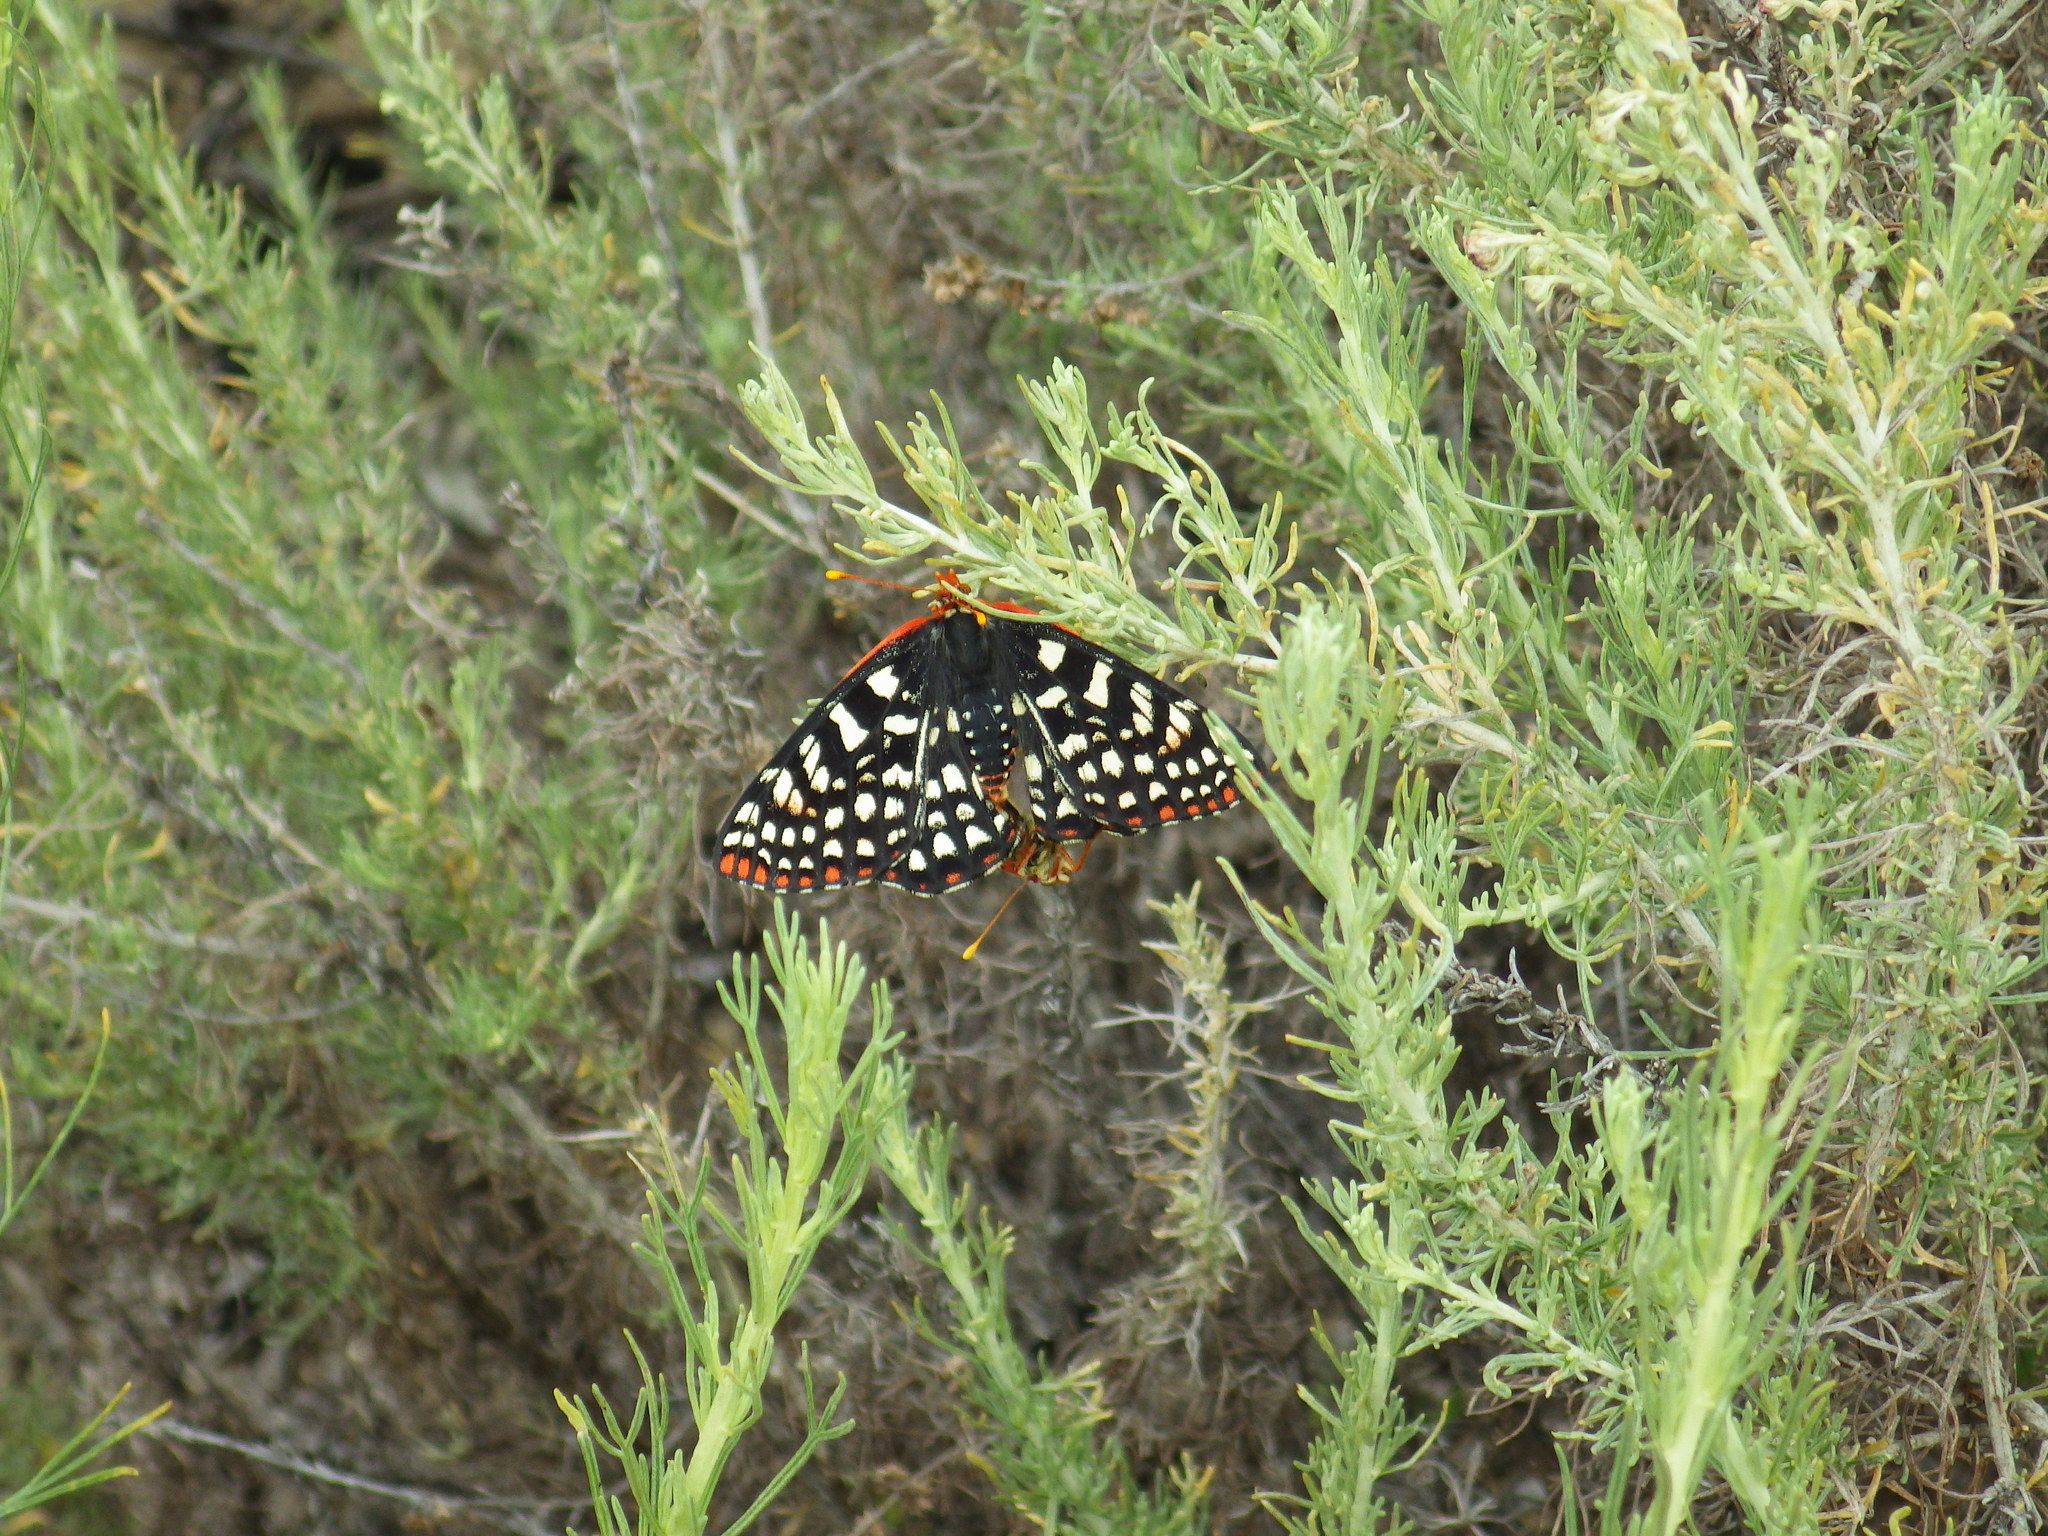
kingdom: Animalia
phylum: Arthropoda
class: Insecta
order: Lepidoptera
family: Nymphalidae
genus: Occidryas
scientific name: Occidryas chalcedona
